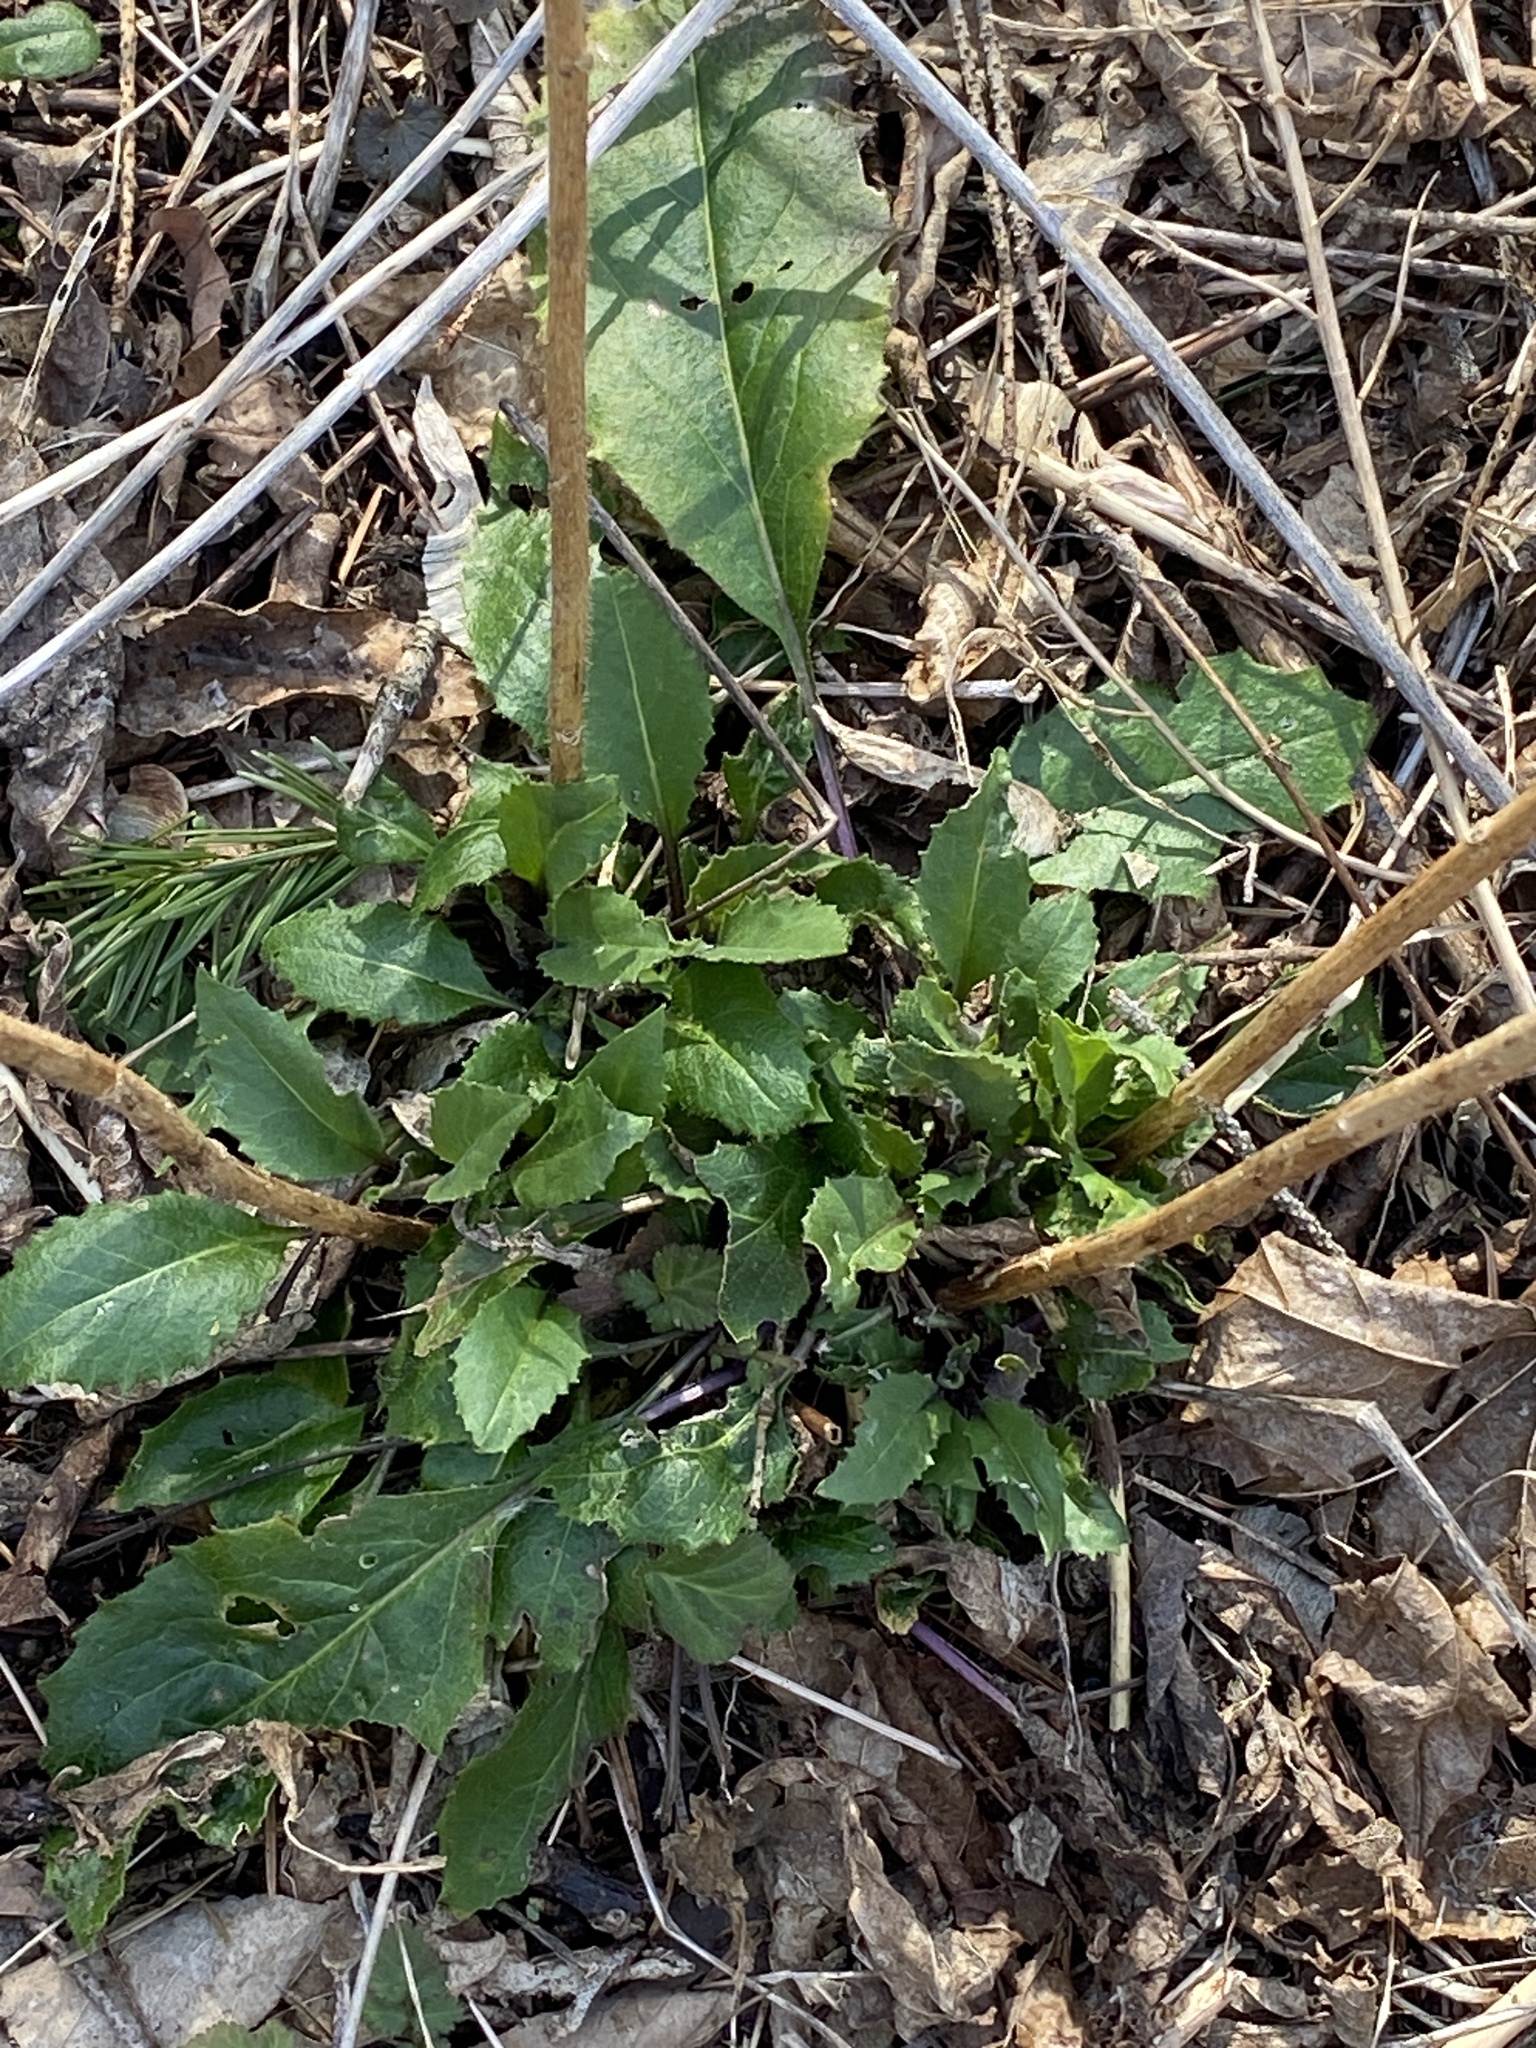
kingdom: Plantae
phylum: Tracheophyta
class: Magnoliopsida
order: Brassicales
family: Brassicaceae
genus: Hesperis
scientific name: Hesperis matronalis
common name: Dame's-violet
